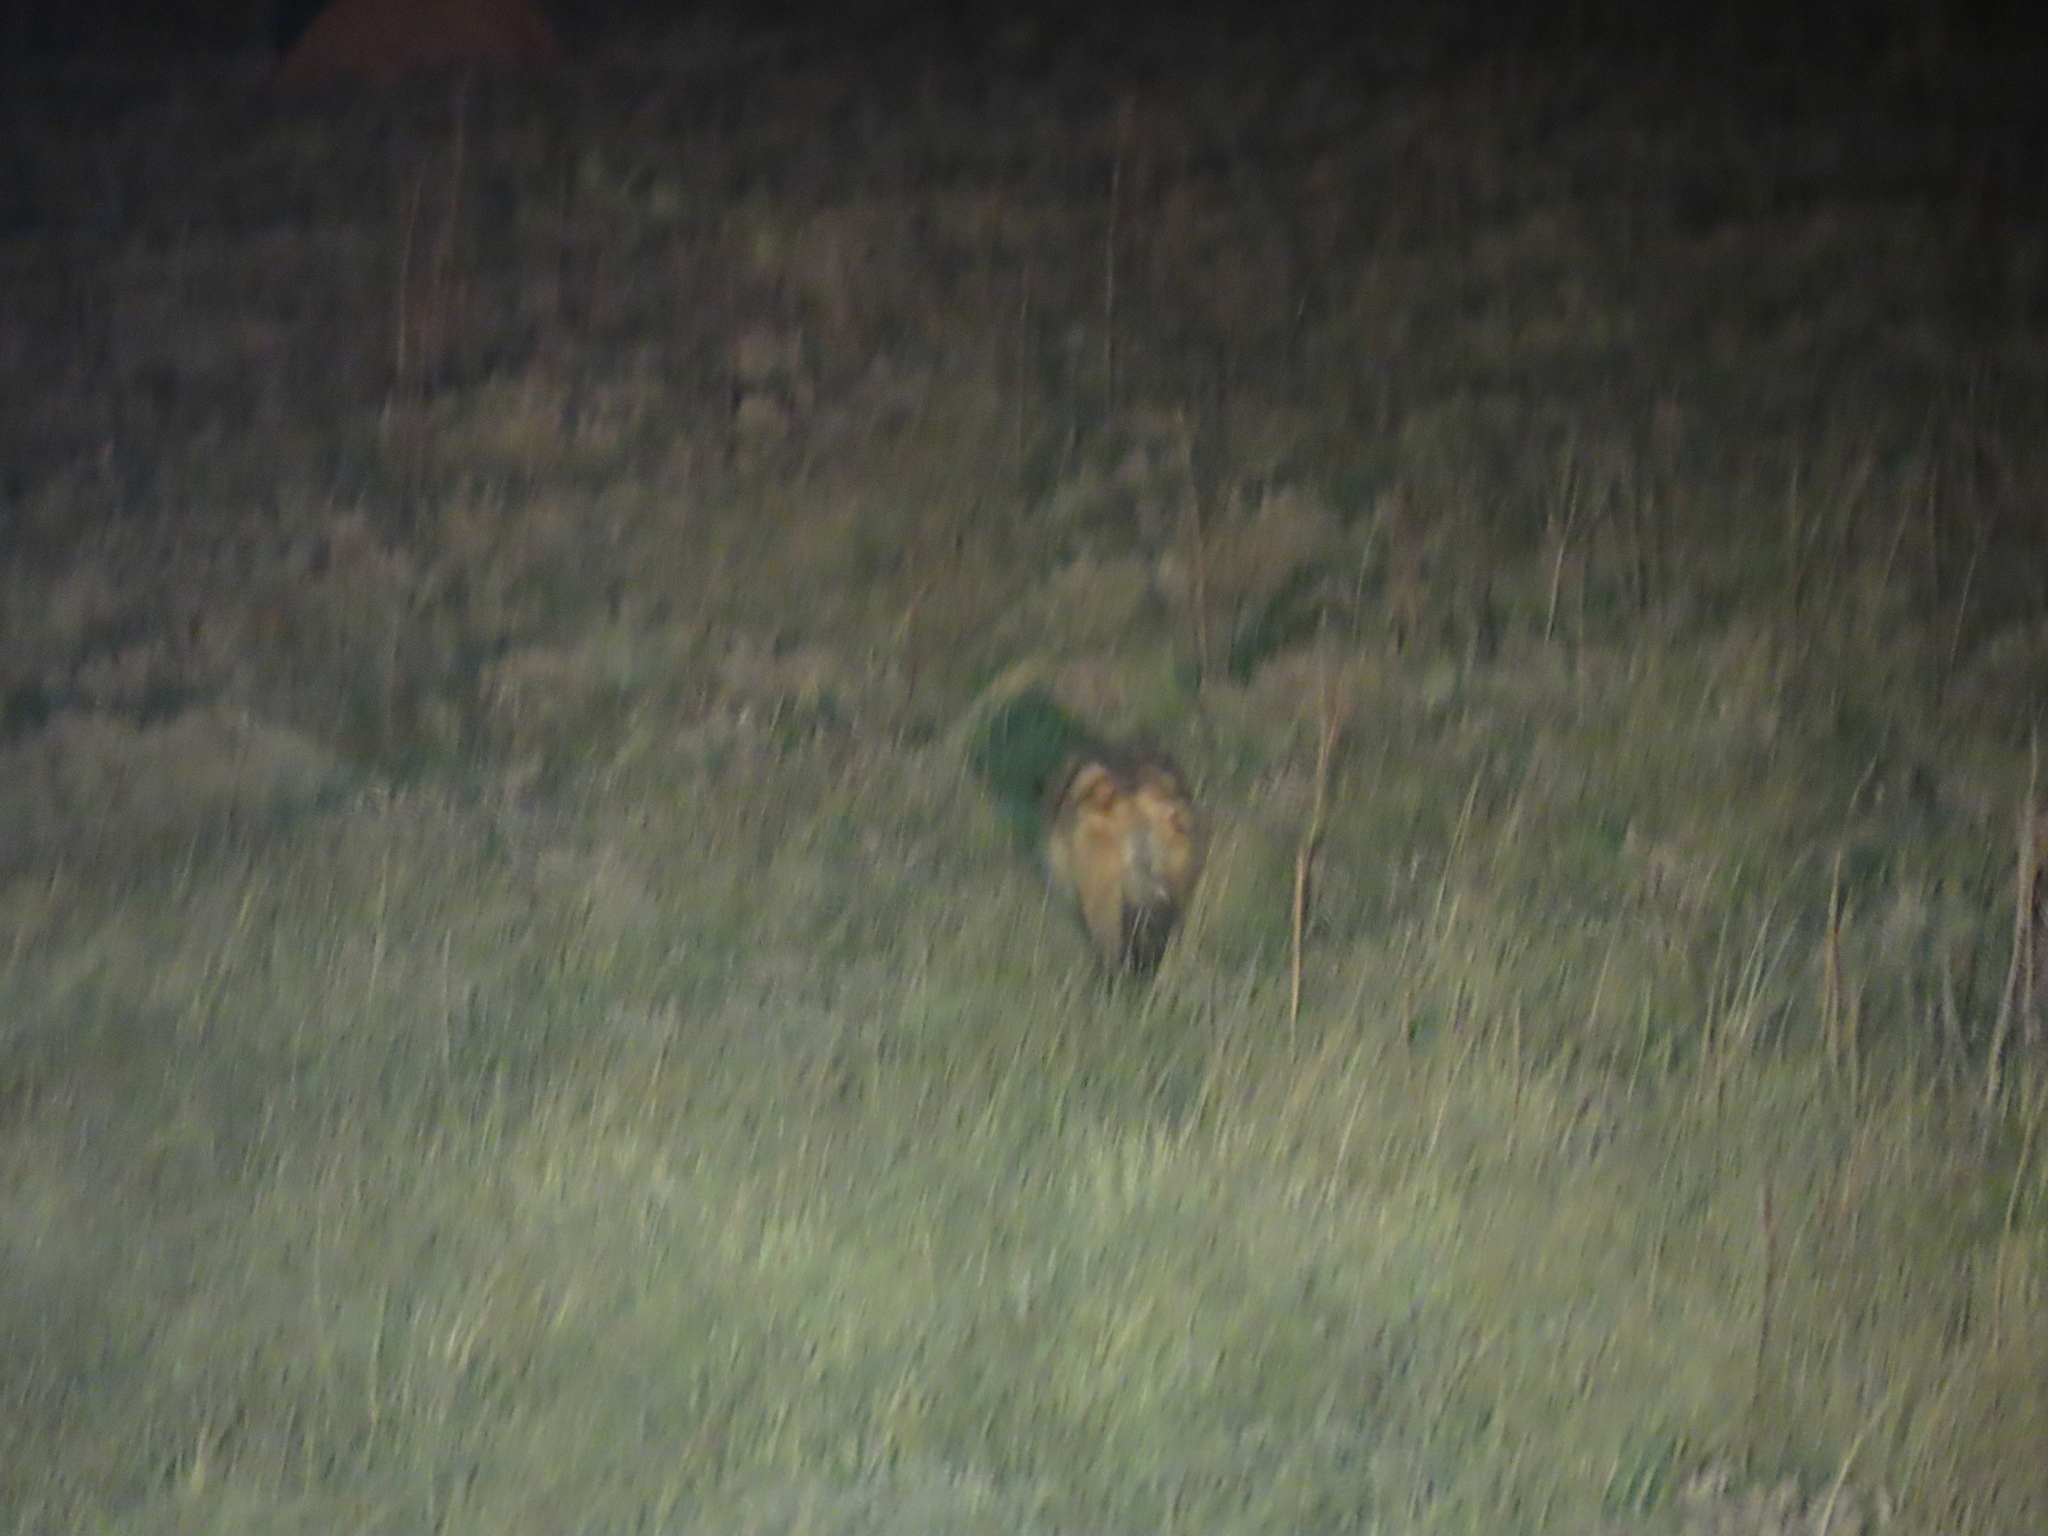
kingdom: Animalia
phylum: Chordata
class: Mammalia
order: Carnivora
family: Hyaenidae
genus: Proteles
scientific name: Proteles cristata
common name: Aardwolf
